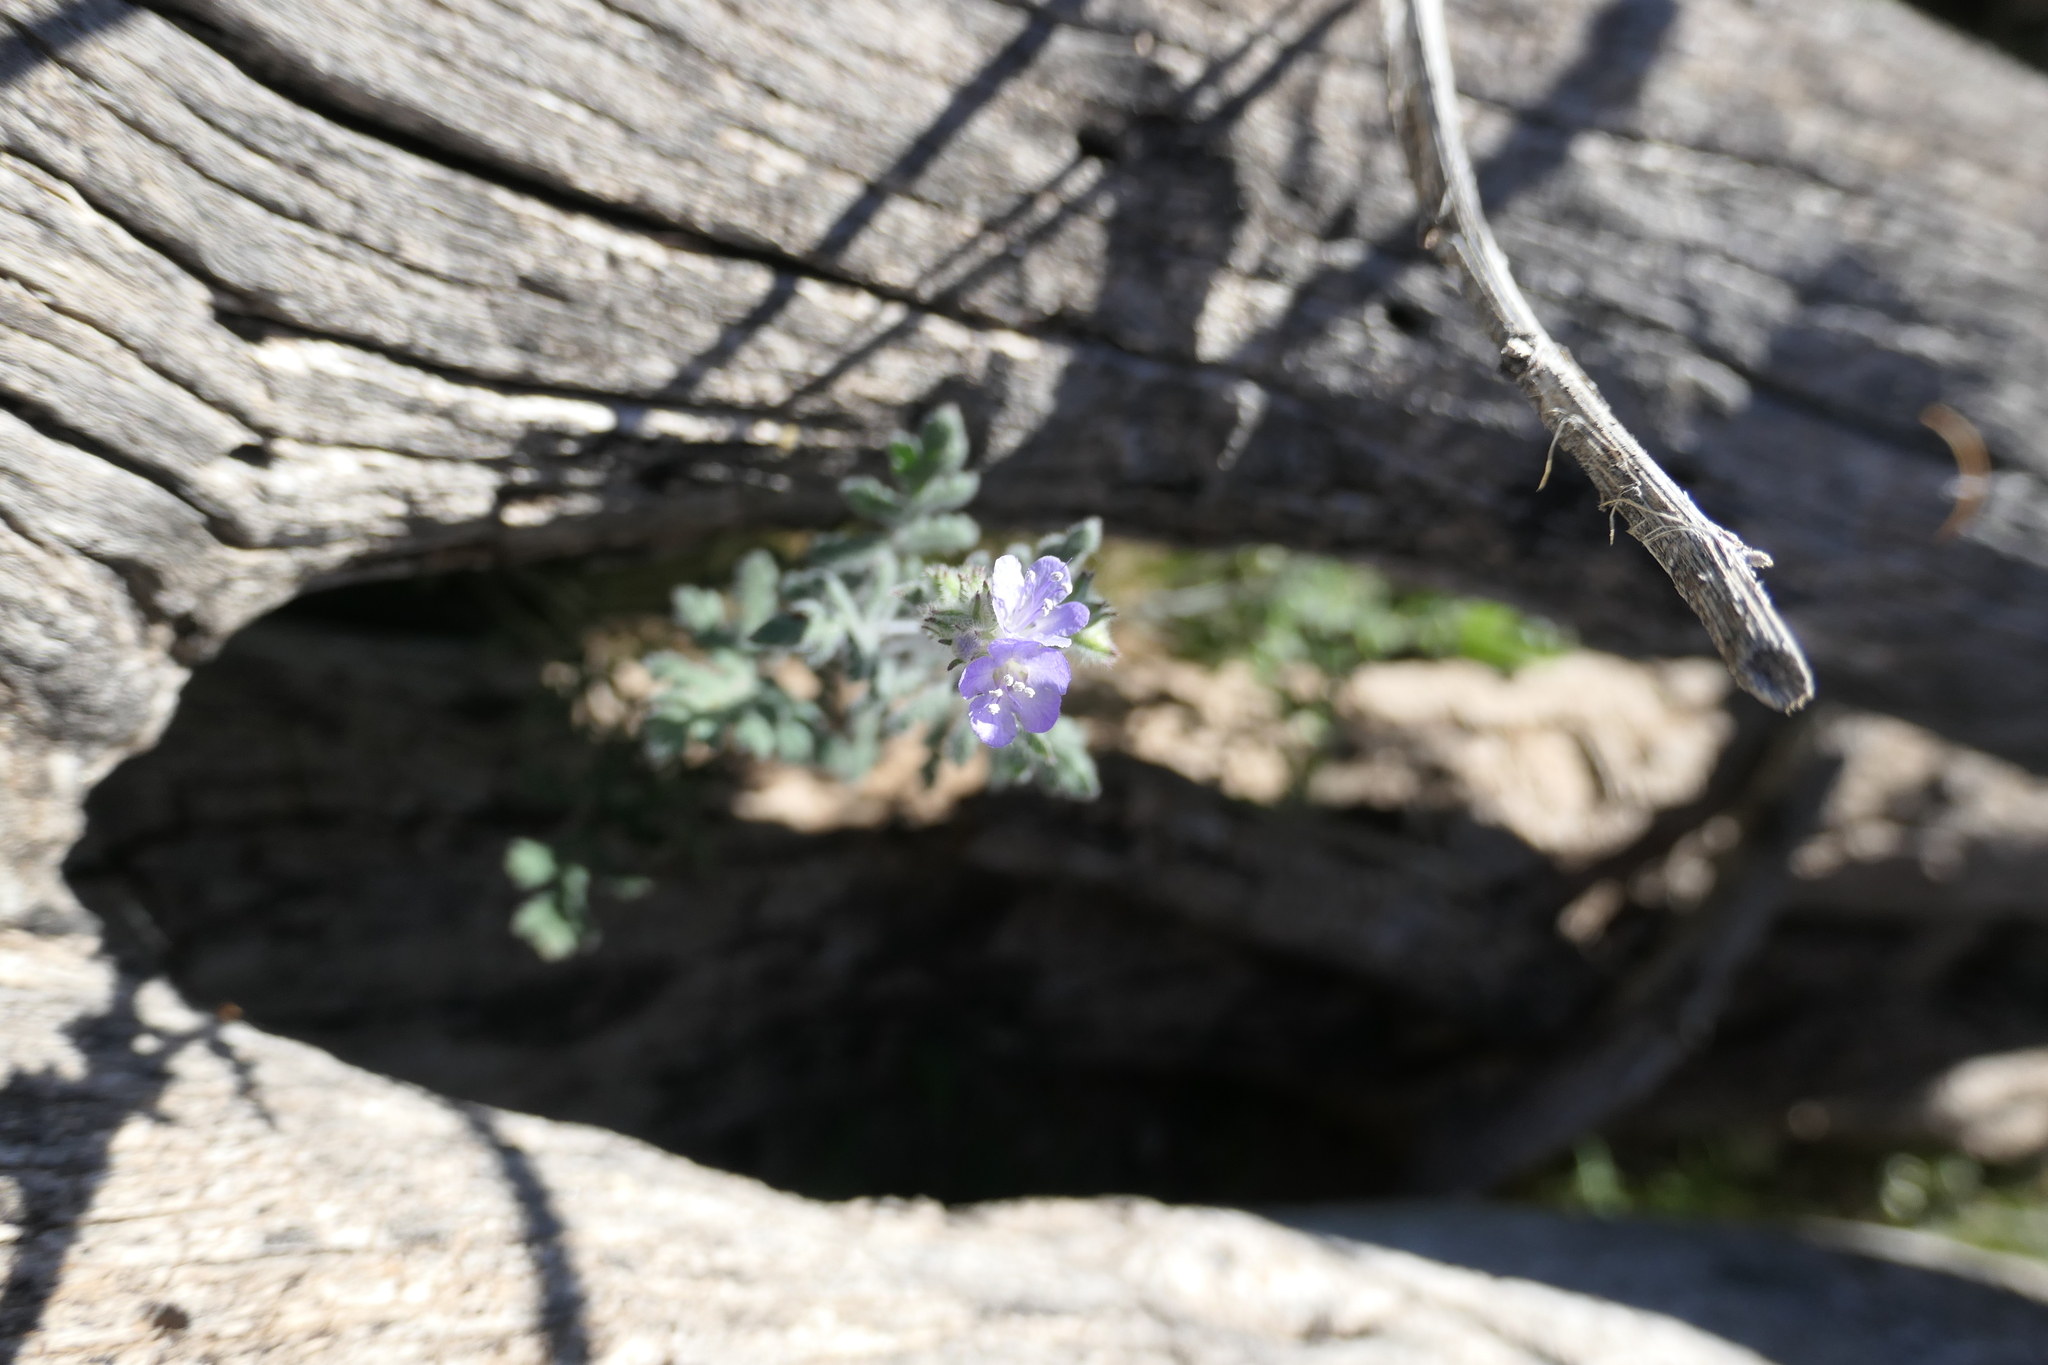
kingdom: Plantae
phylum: Tracheophyta
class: Magnoliopsida
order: Boraginales
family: Hydrophyllaceae
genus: Phacelia
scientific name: Phacelia distans
